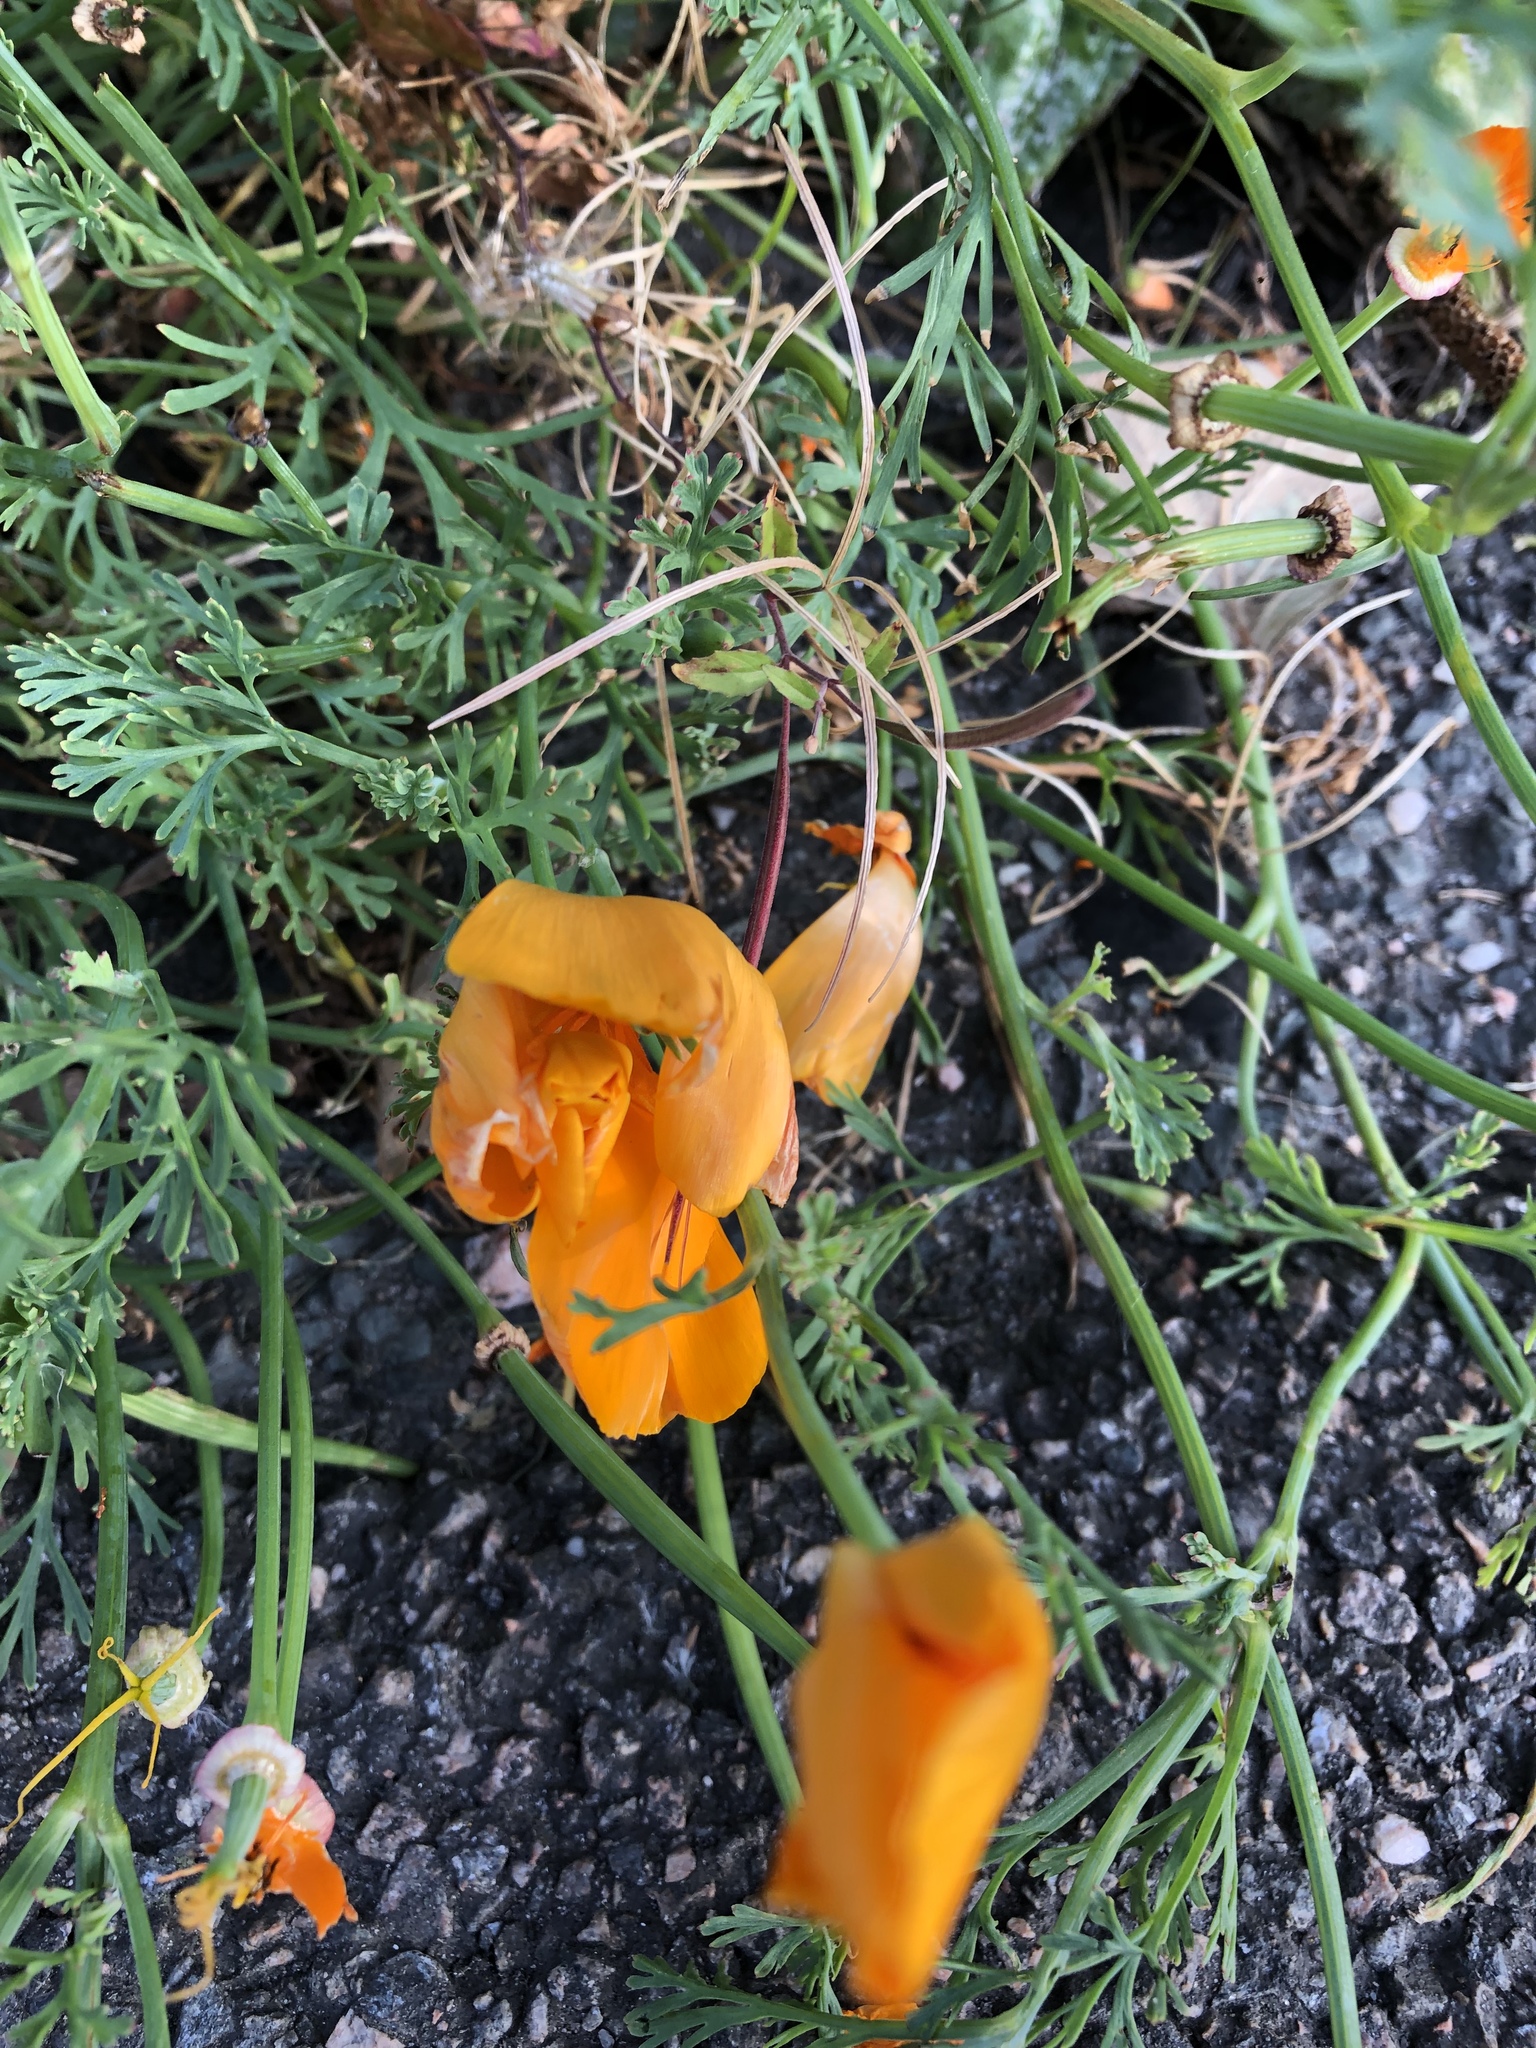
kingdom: Plantae
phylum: Tracheophyta
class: Magnoliopsida
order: Ranunculales
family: Papaveraceae
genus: Eschscholzia
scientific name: Eschscholzia californica
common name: California poppy
